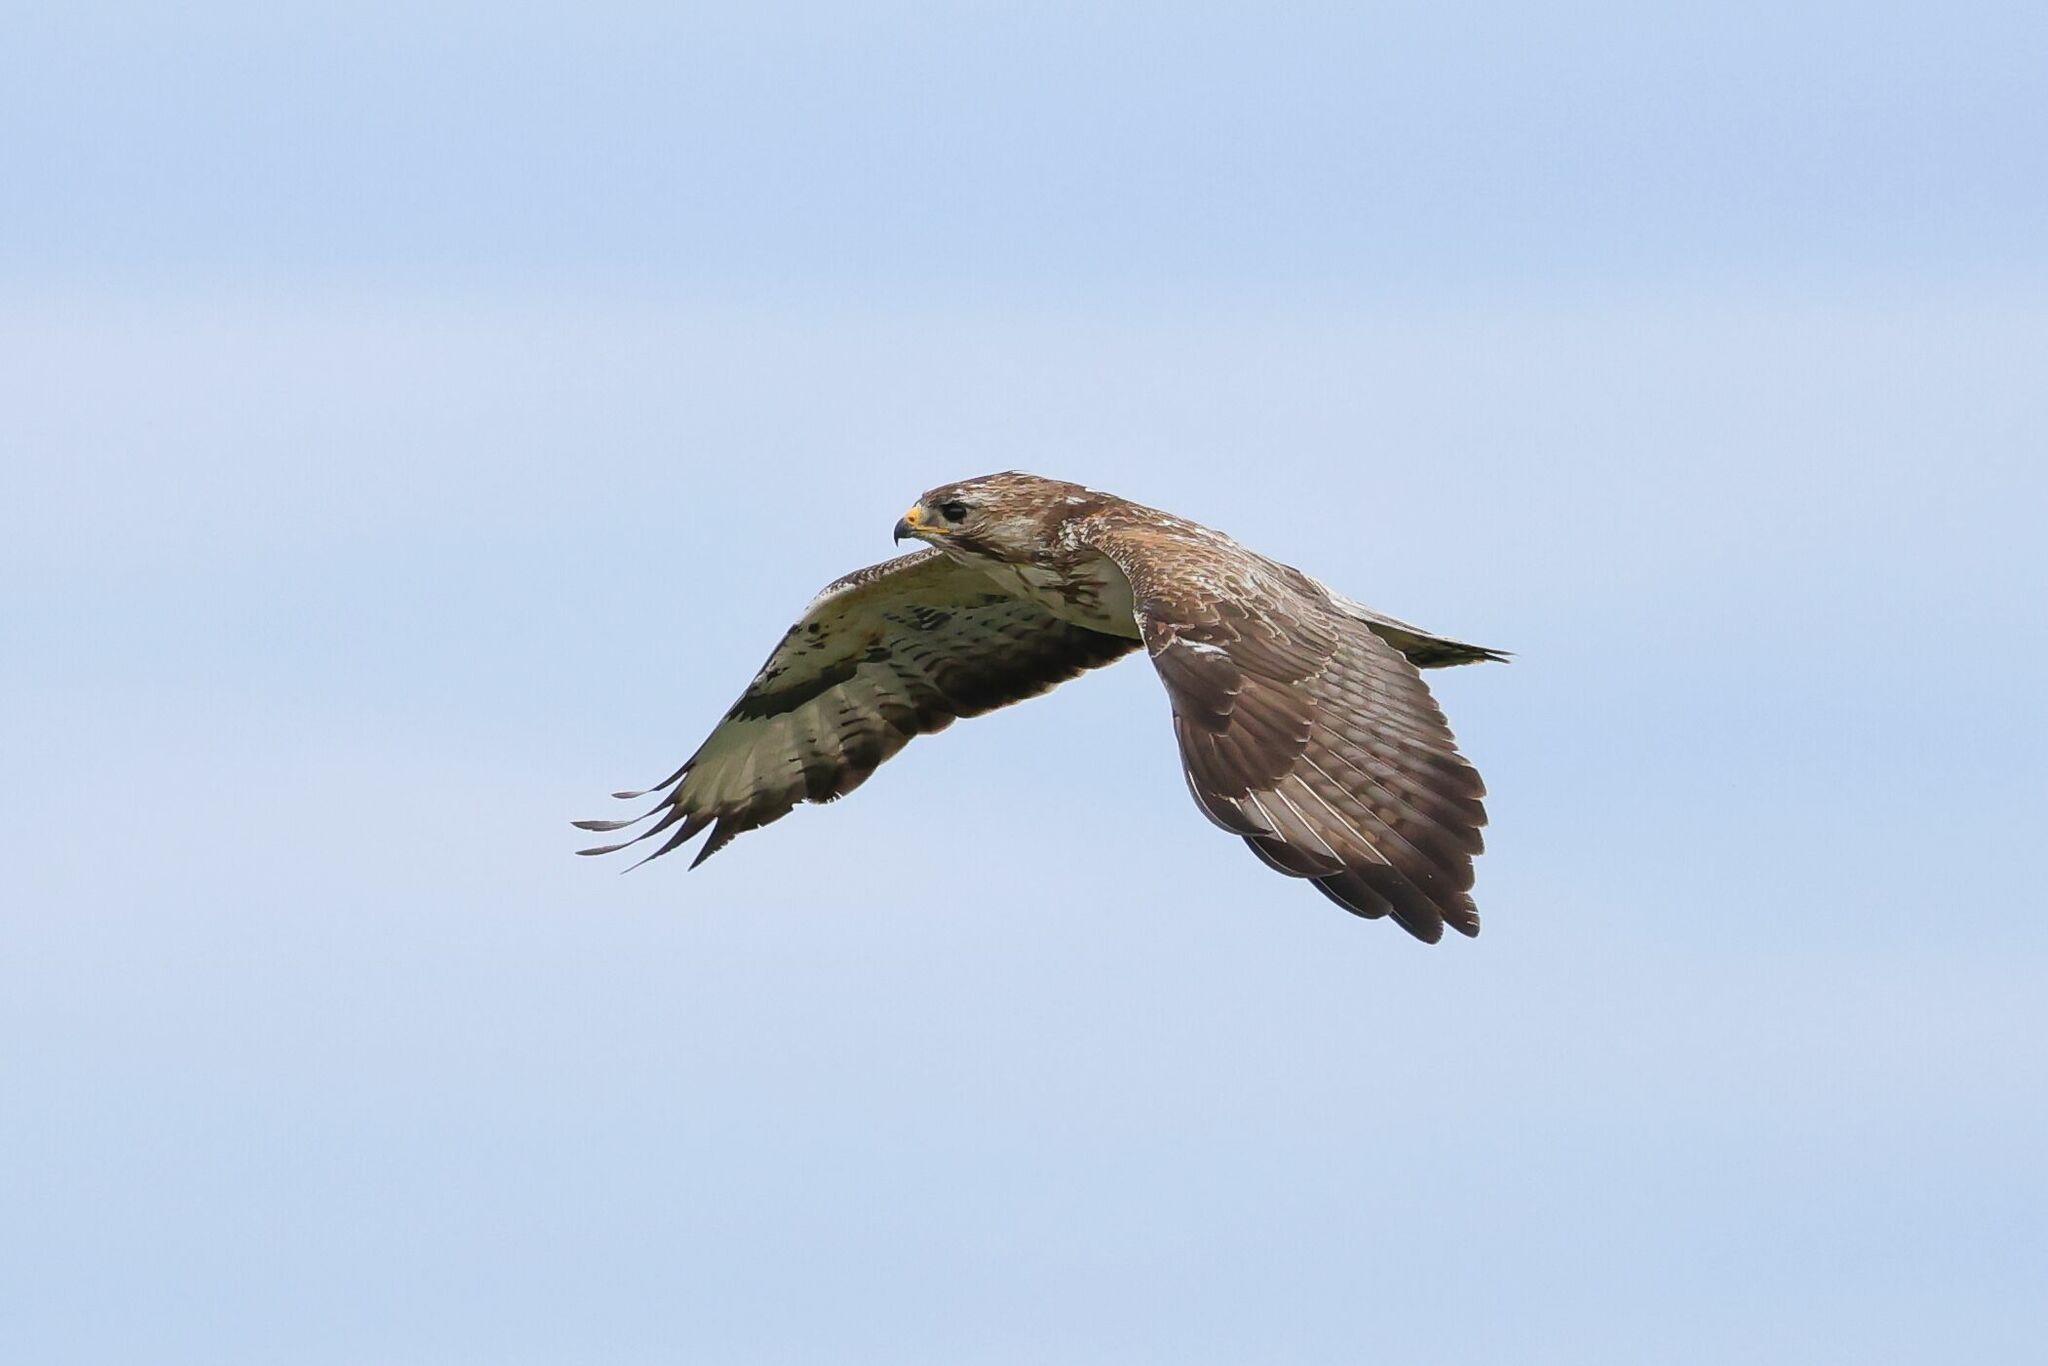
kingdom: Animalia
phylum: Chordata
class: Aves
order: Accipitriformes
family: Accipitridae
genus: Buteo
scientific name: Buteo buteo
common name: Common buzzard
